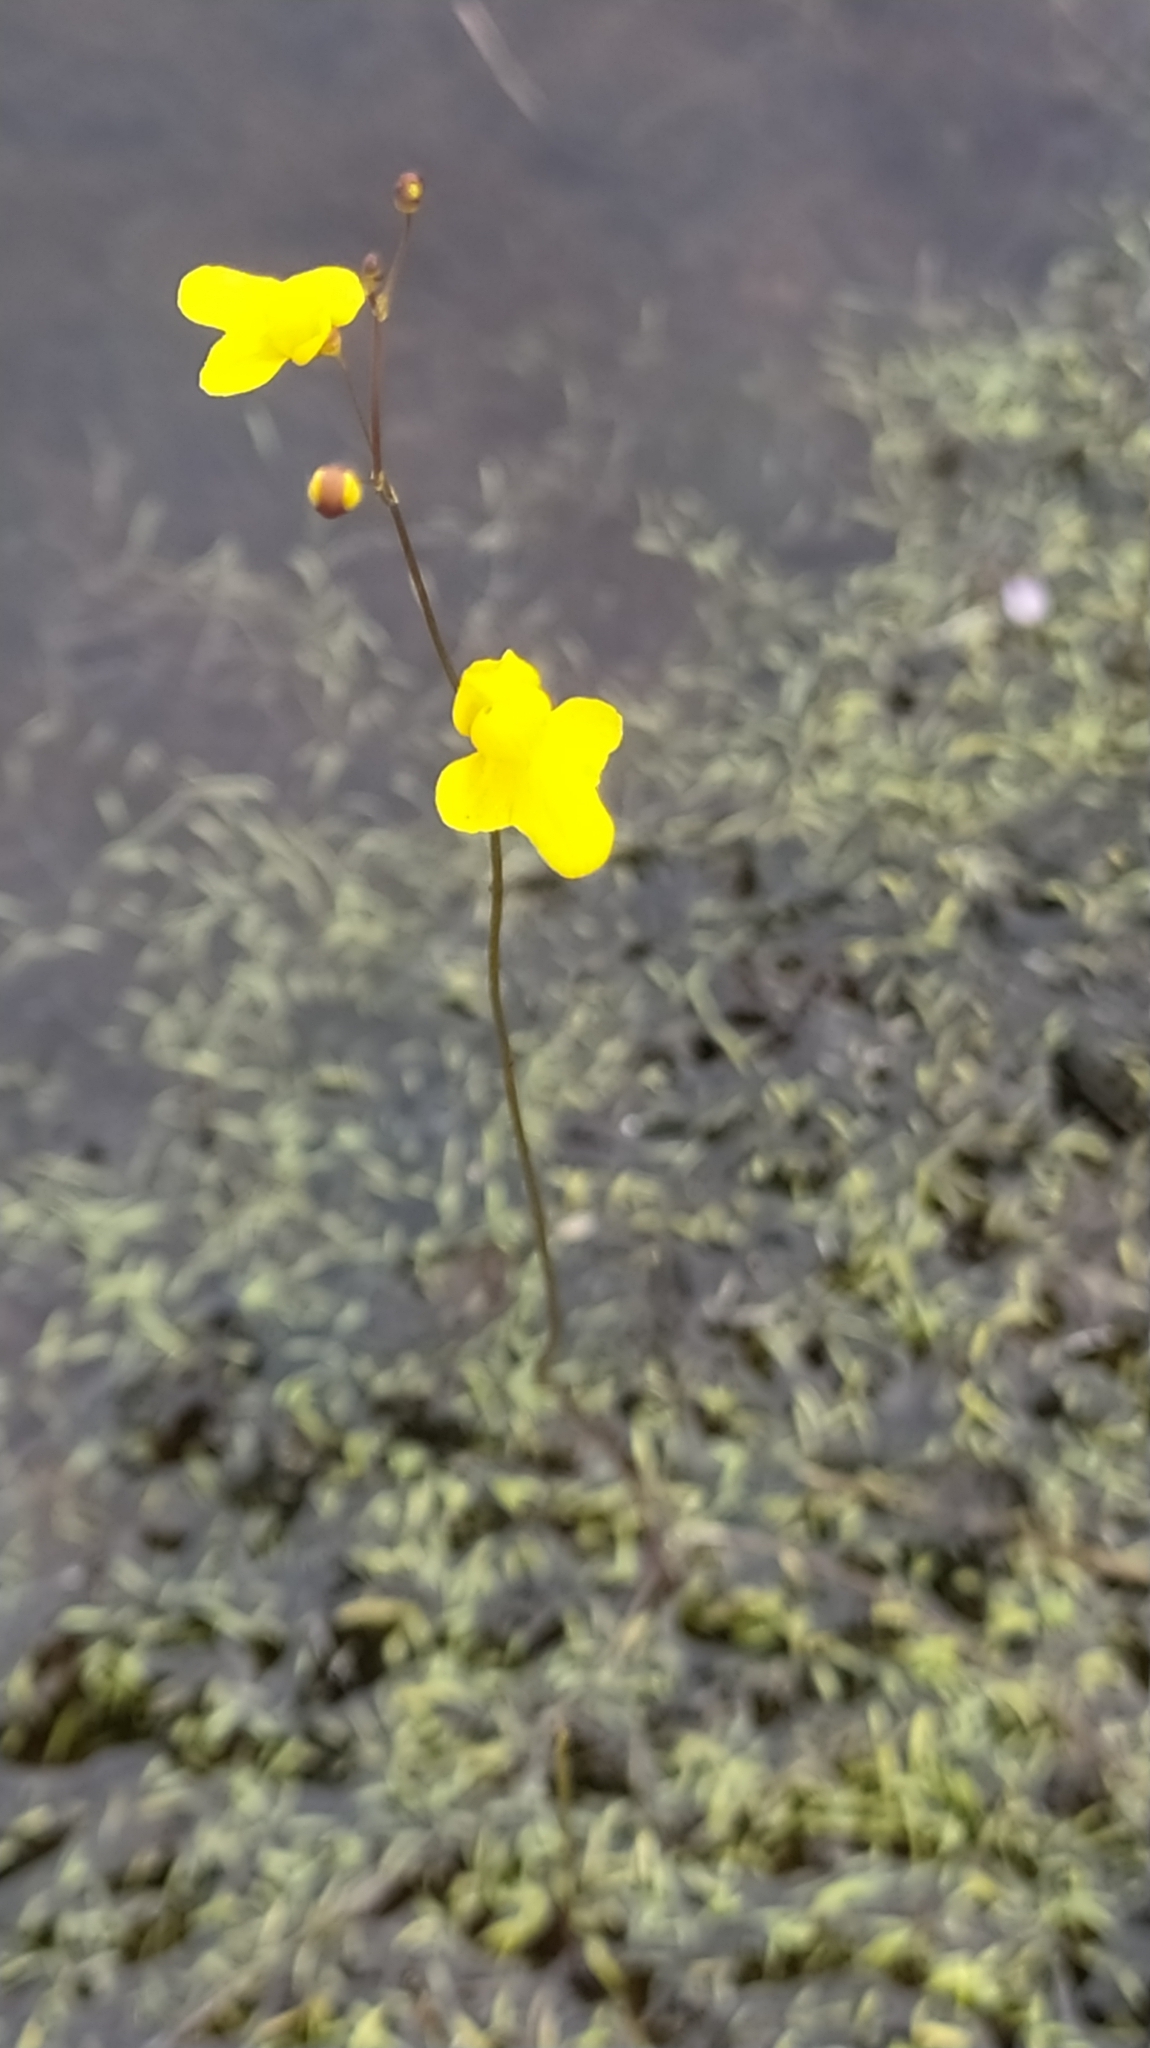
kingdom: Plantae
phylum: Tracheophyta
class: Magnoliopsida
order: Lamiales
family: Lentibulariaceae
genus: Utricularia
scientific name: Utricularia subulata
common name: Tiny bladderwort
